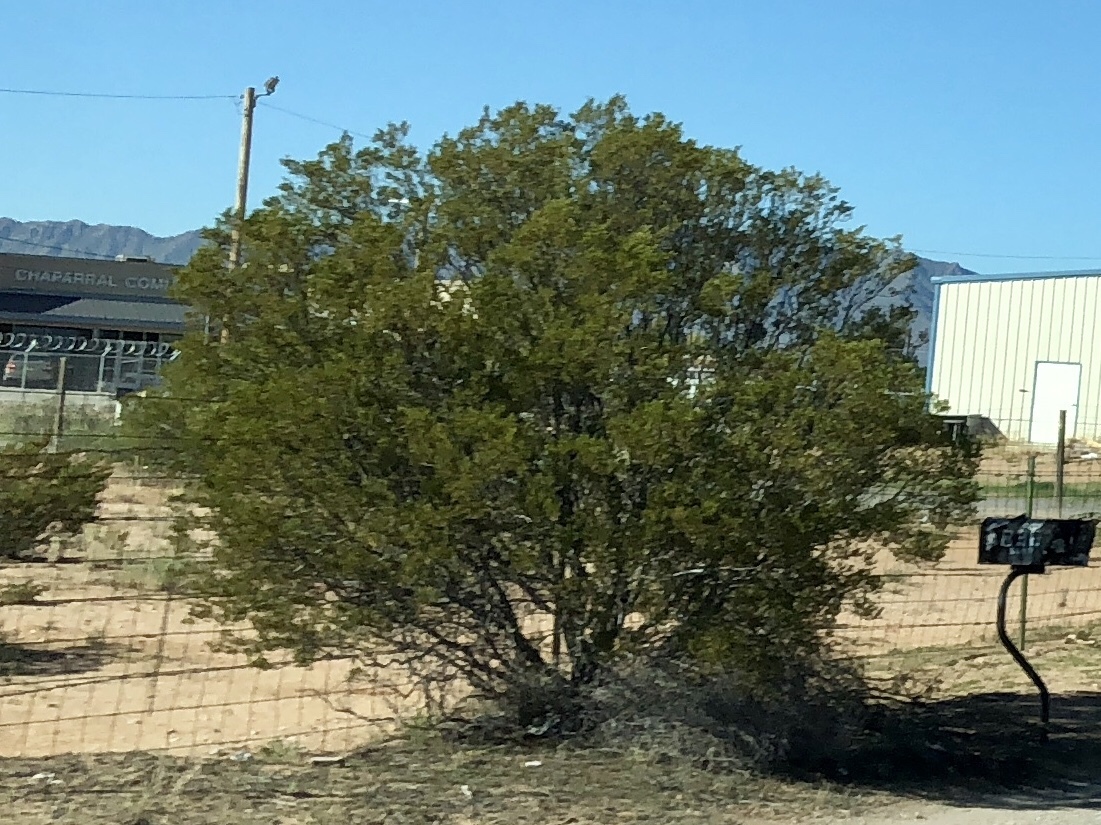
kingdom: Plantae
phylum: Tracheophyta
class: Magnoliopsida
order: Zygophyllales
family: Zygophyllaceae
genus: Larrea
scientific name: Larrea tridentata
